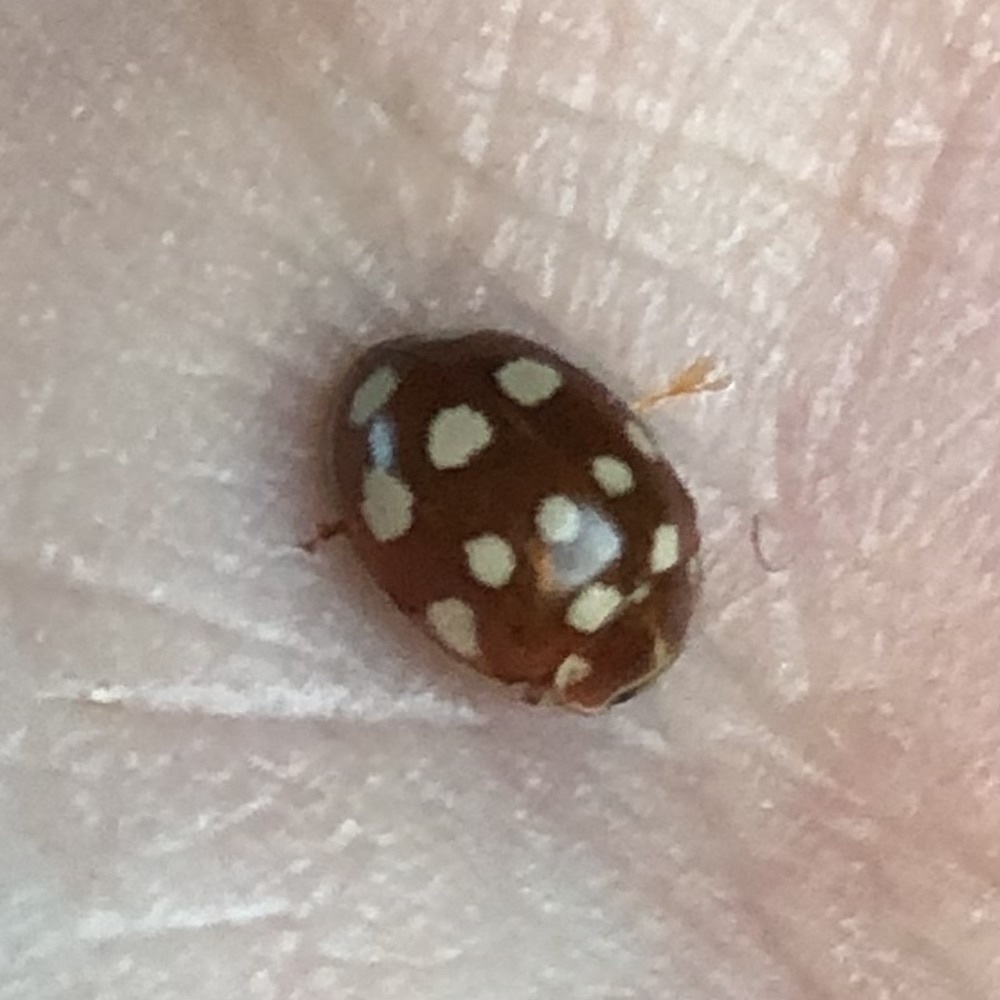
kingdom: Animalia
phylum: Arthropoda
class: Insecta
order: Coleoptera
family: Coccinellidae
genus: Calvia
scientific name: Calvia quatuordecimguttata
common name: Cream-spot ladybird
